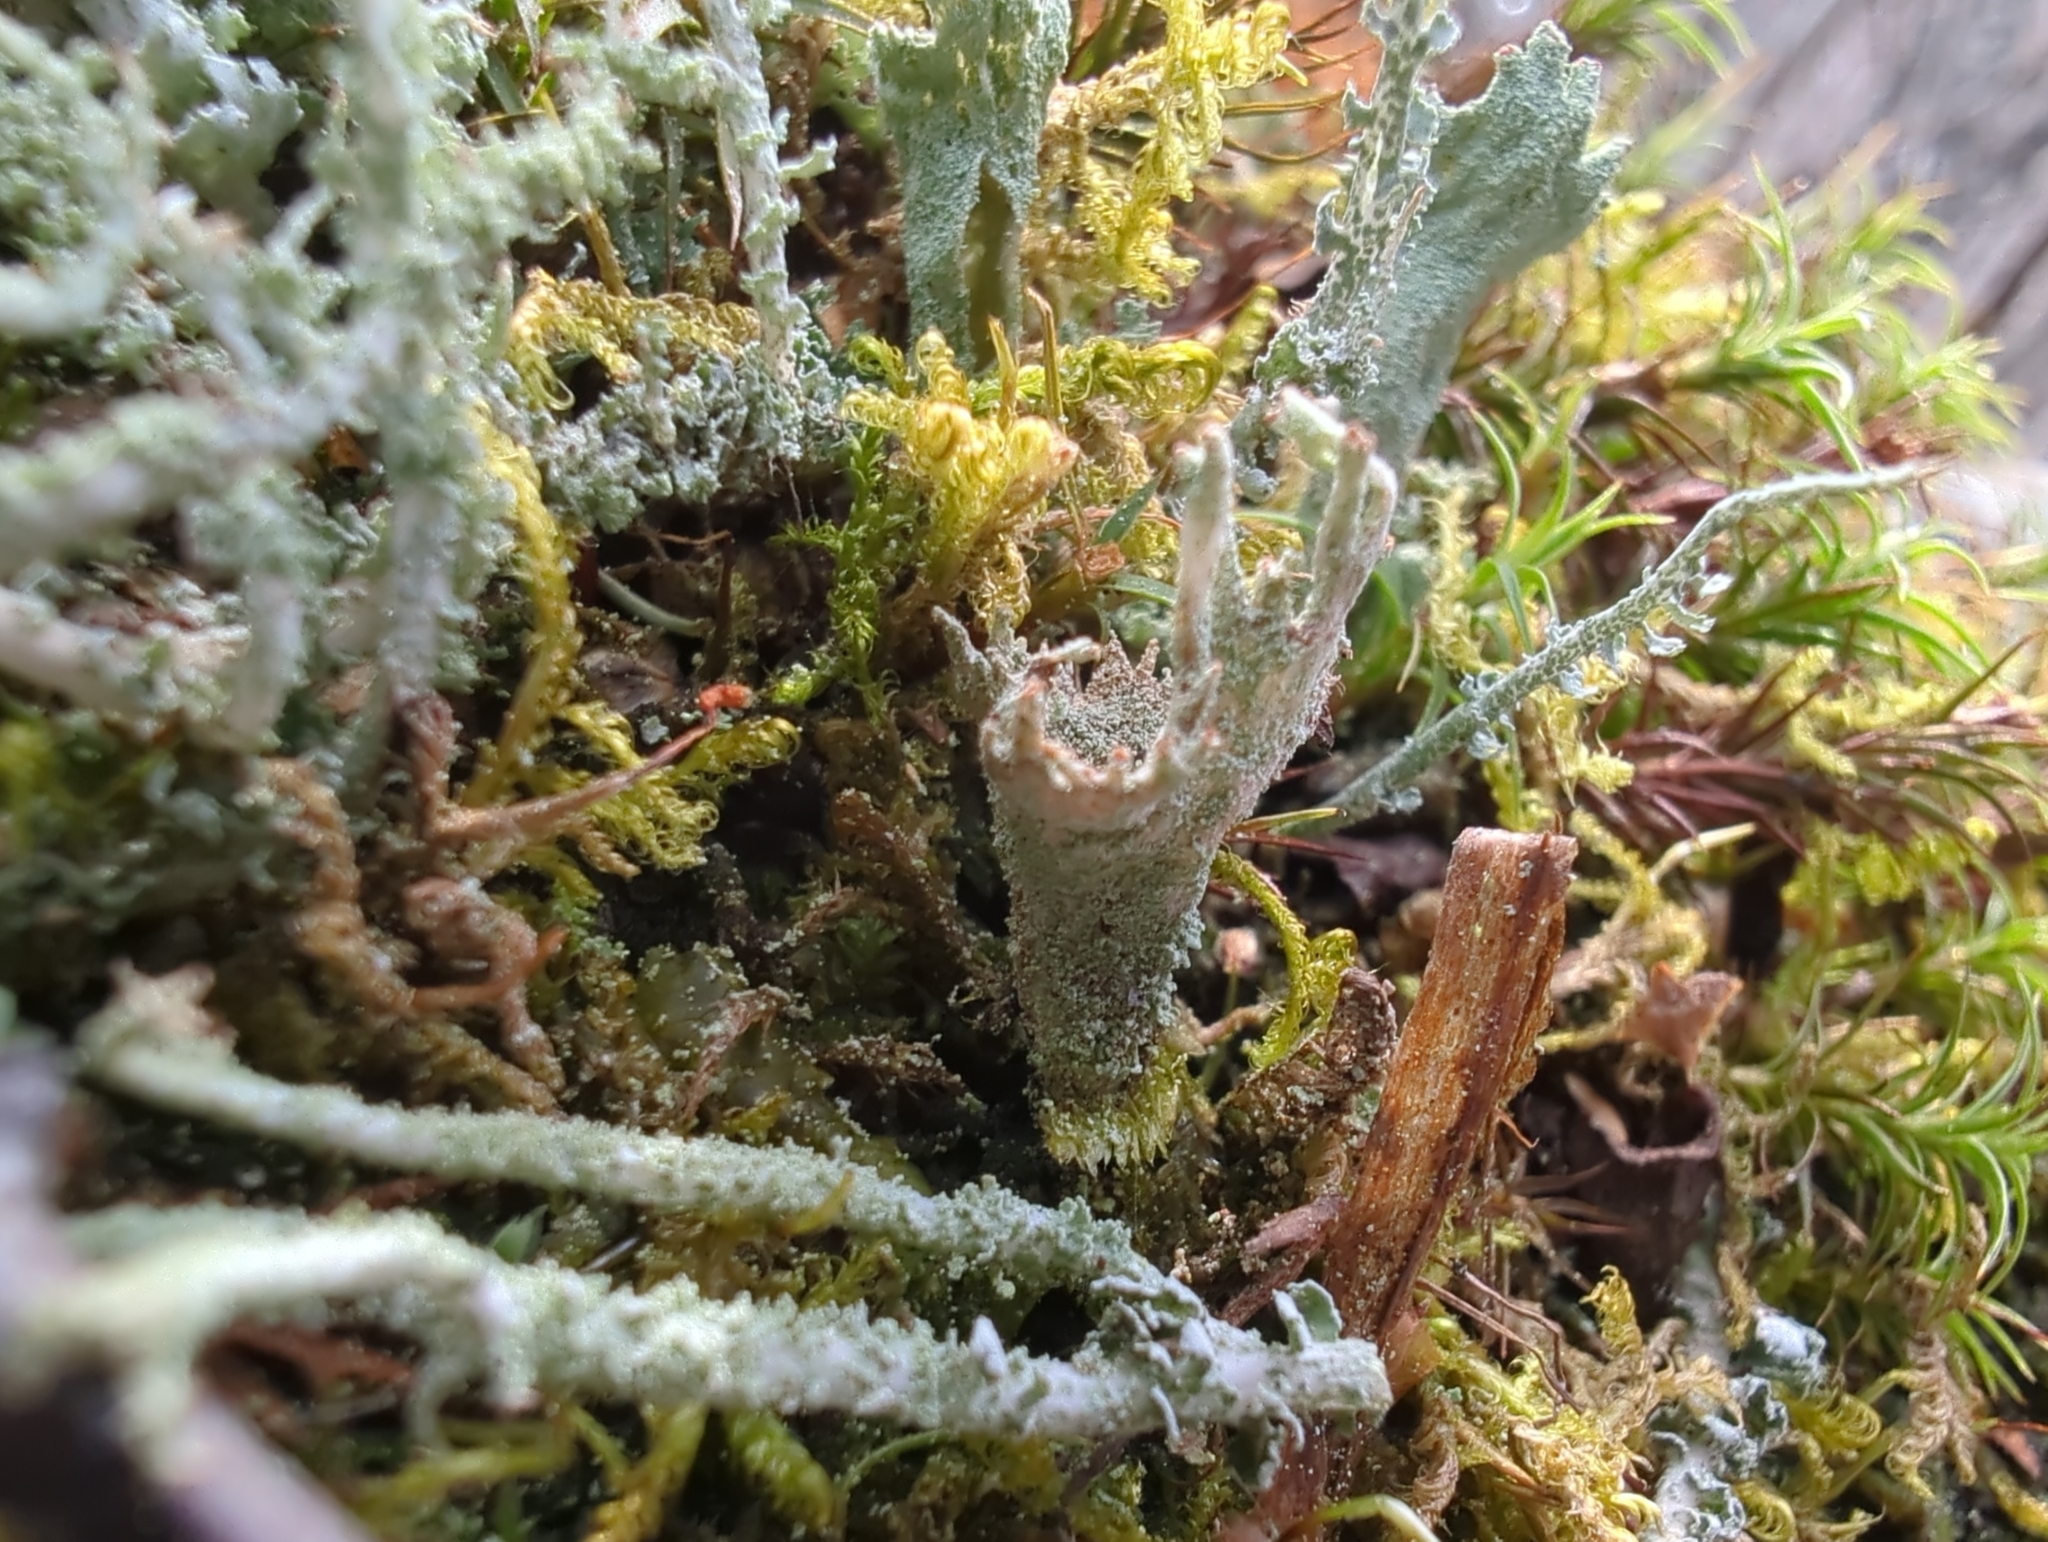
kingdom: Fungi
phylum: Ascomycota
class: Lecanoromycetes
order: Lecanorales
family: Cladoniaceae
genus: Cladonia
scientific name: Cladonia pleurota
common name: Red-fruited pixie cup
